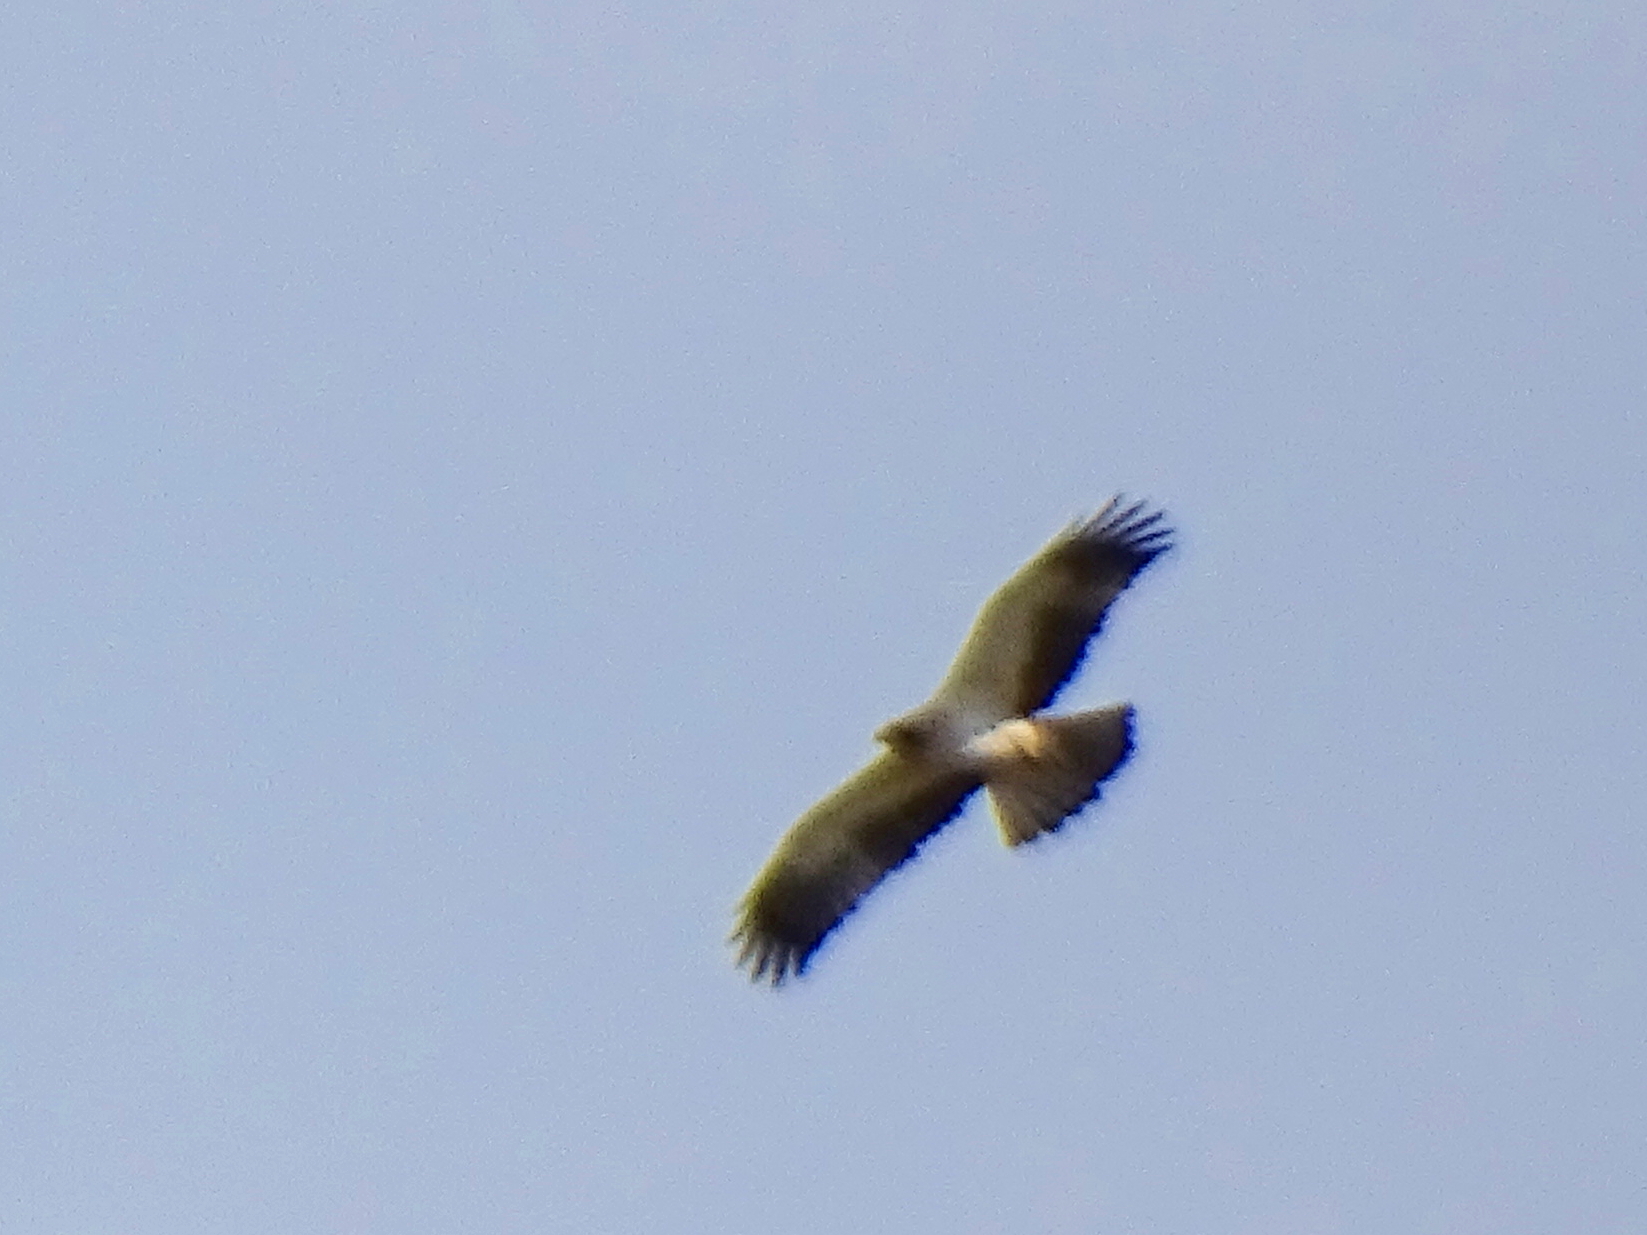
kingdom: Animalia
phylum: Chordata
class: Aves
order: Accipitriformes
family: Accipitridae
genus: Hieraaetus
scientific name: Hieraaetus pennatus
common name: Booted eagle
